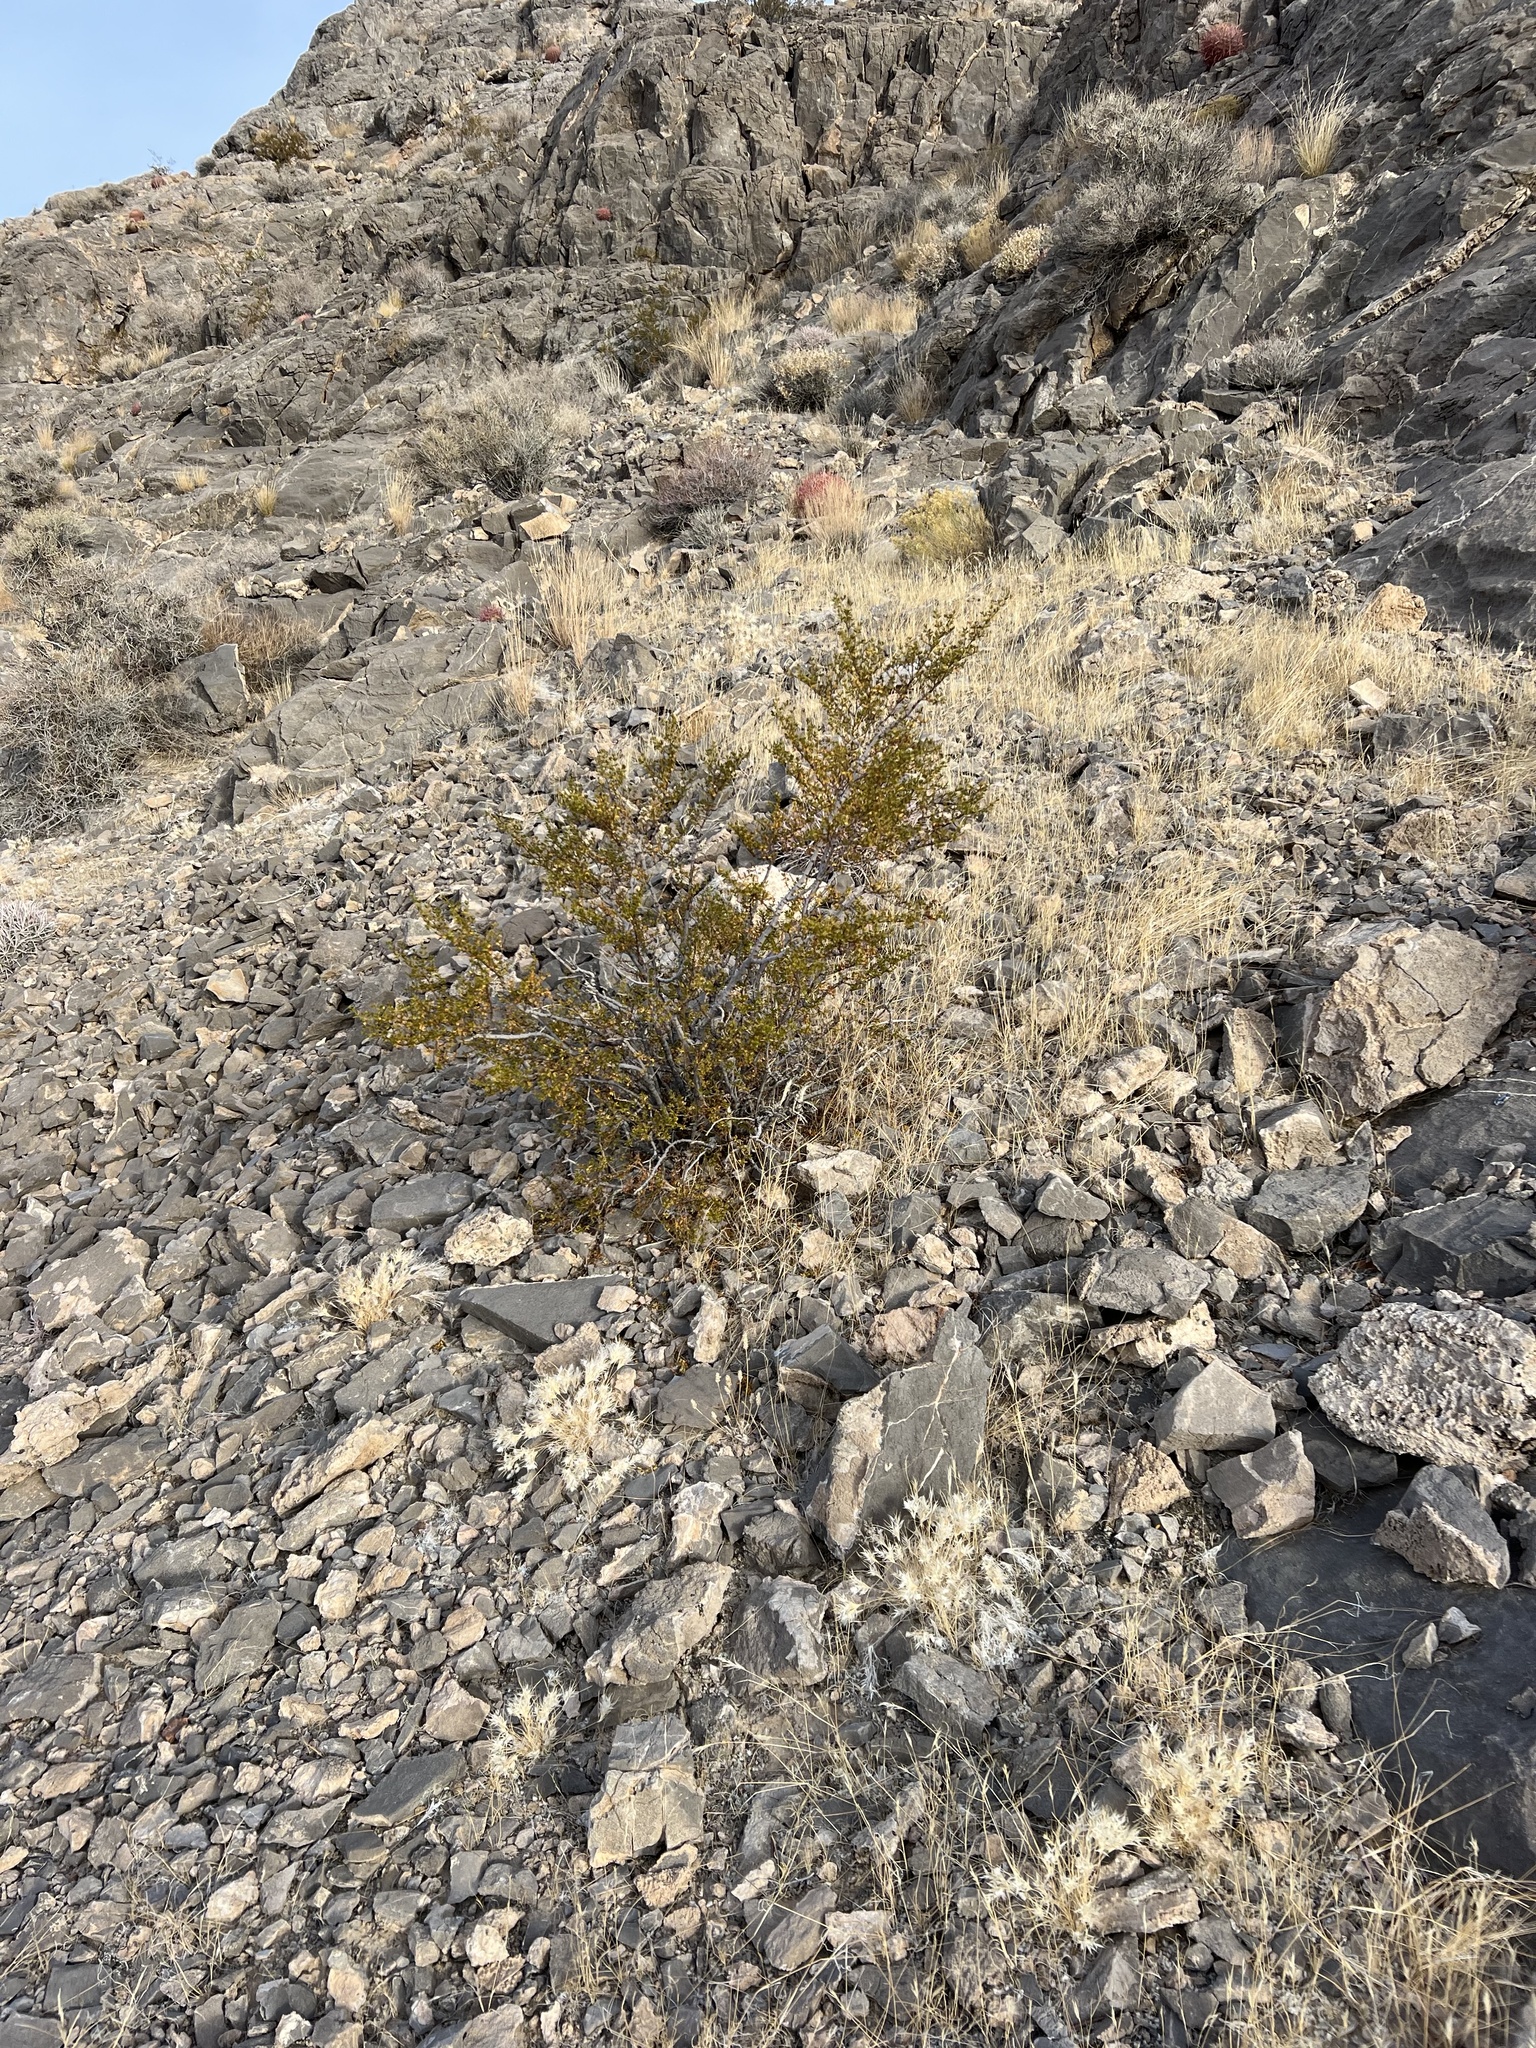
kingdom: Plantae
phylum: Tracheophyta
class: Magnoliopsida
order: Zygophyllales
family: Zygophyllaceae
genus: Larrea
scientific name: Larrea tridentata
